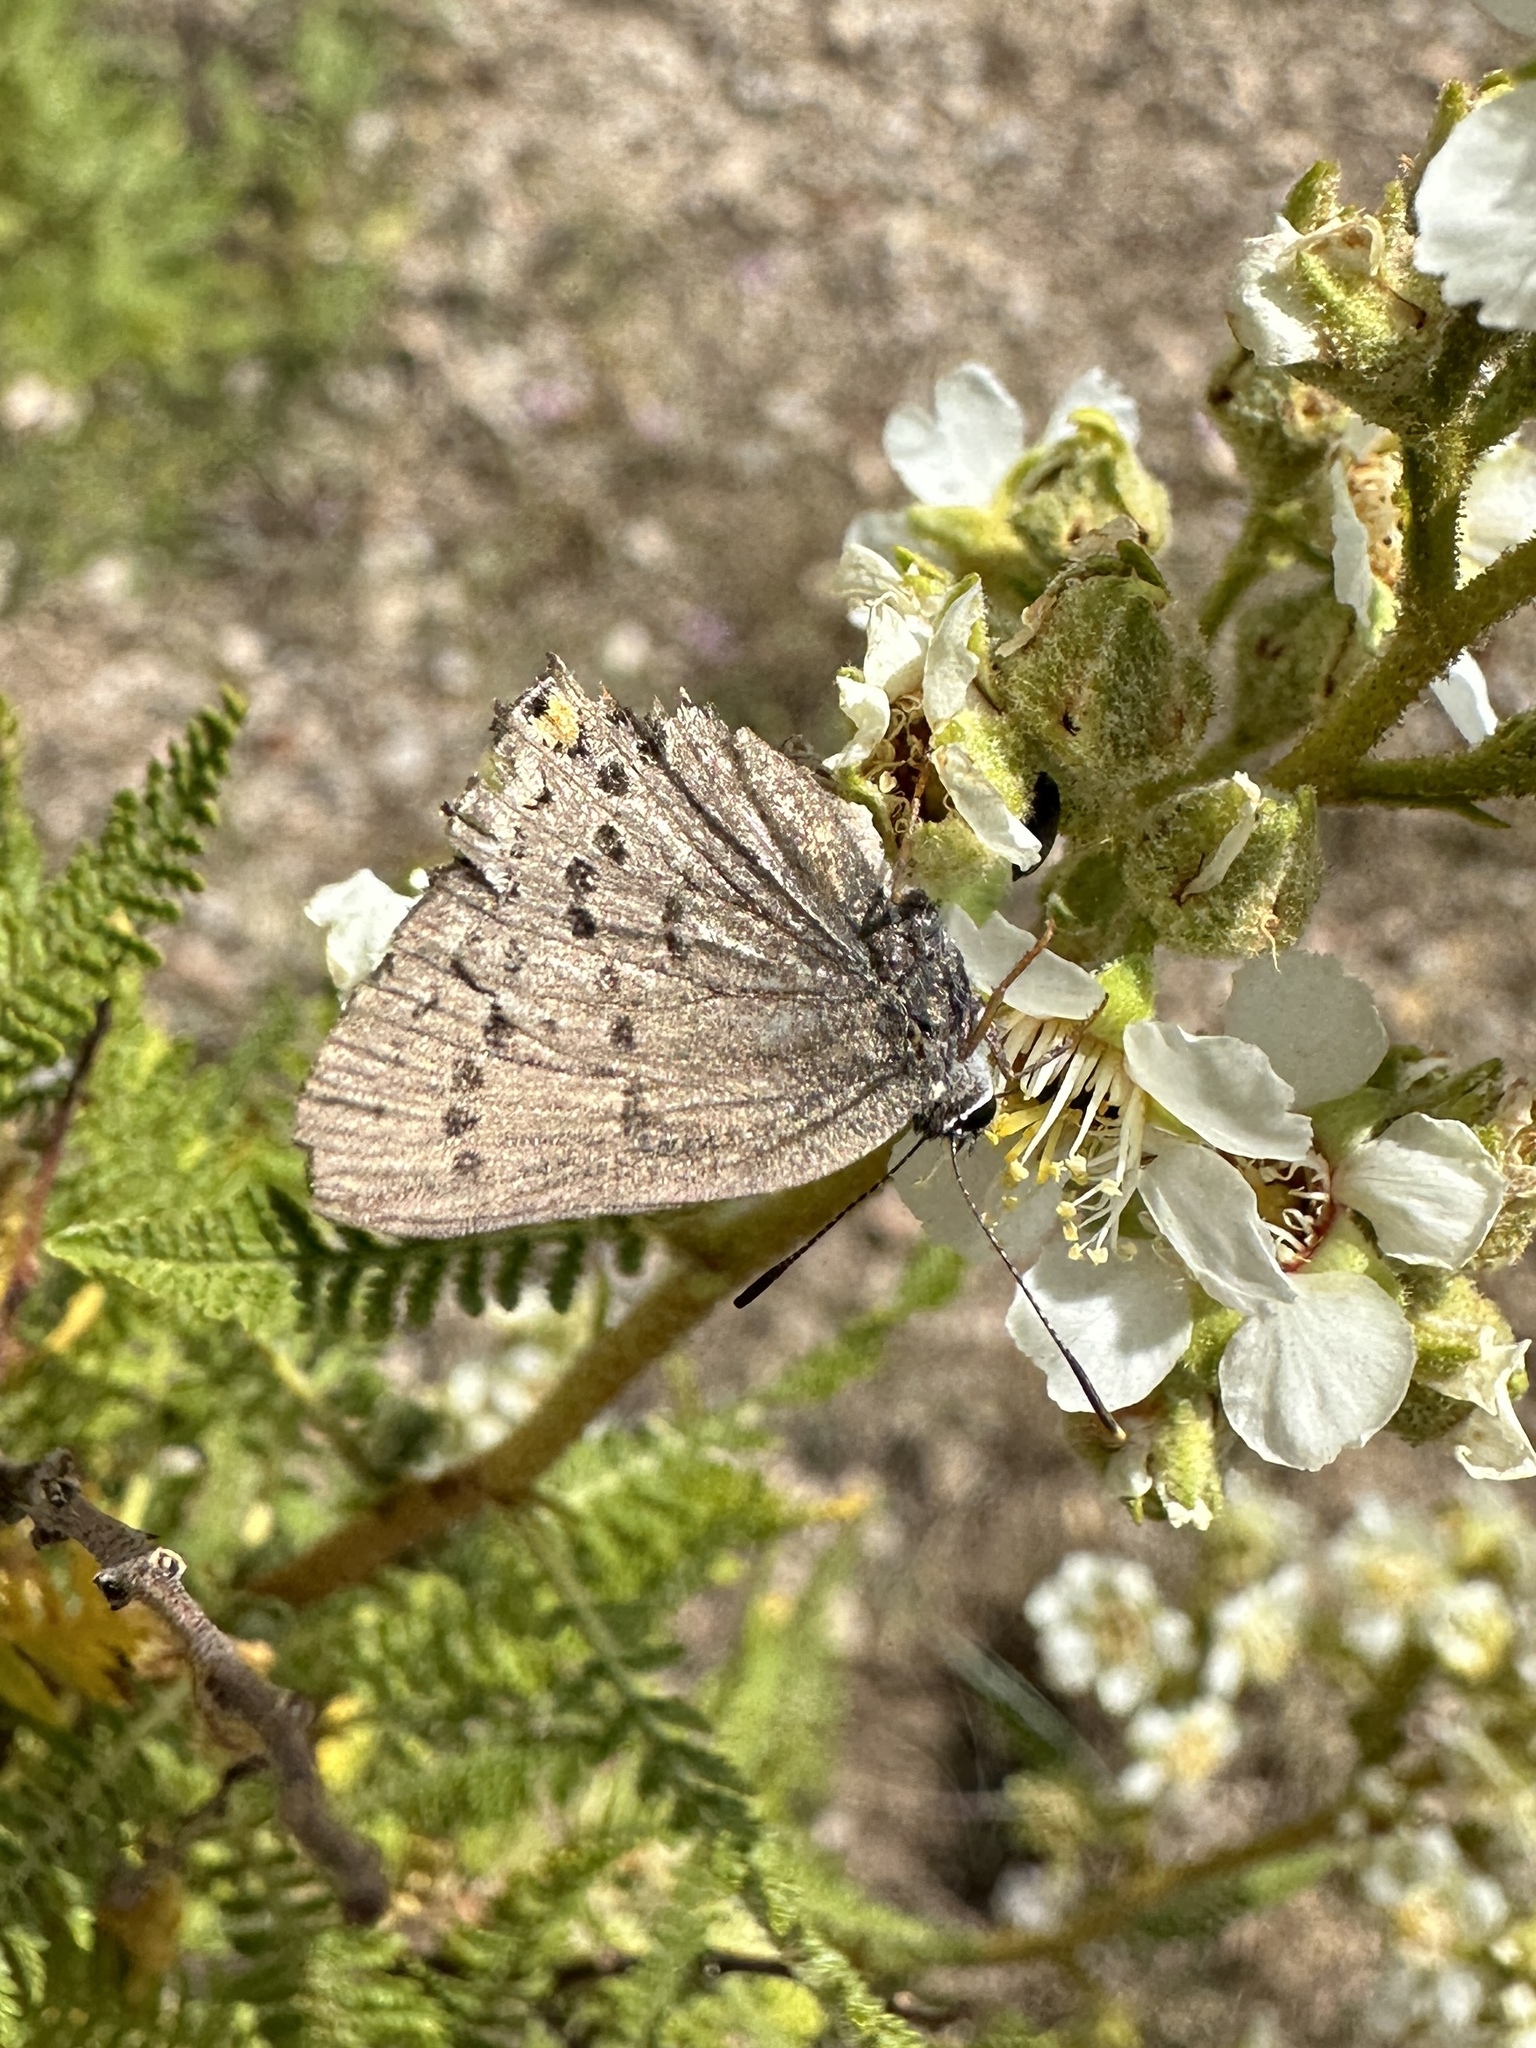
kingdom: Animalia
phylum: Arthropoda
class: Insecta
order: Lepidoptera
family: Lycaenidae
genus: Strymon
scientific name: Strymon acadica
